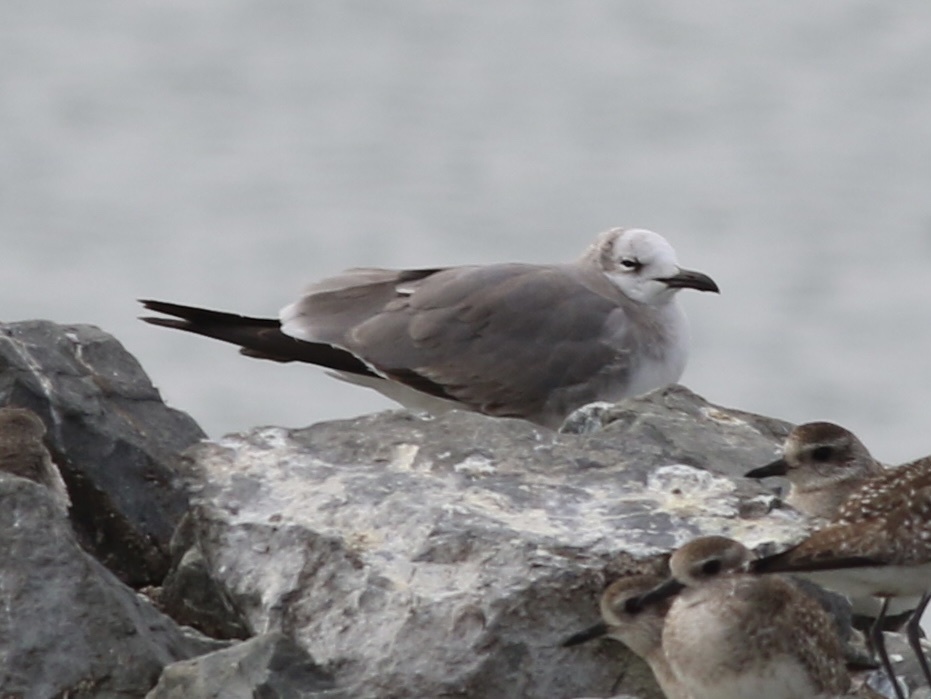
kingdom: Animalia
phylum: Chordata
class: Aves
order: Charadriiformes
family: Laridae
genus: Leucophaeus
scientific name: Leucophaeus atricilla
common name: Laughing gull
